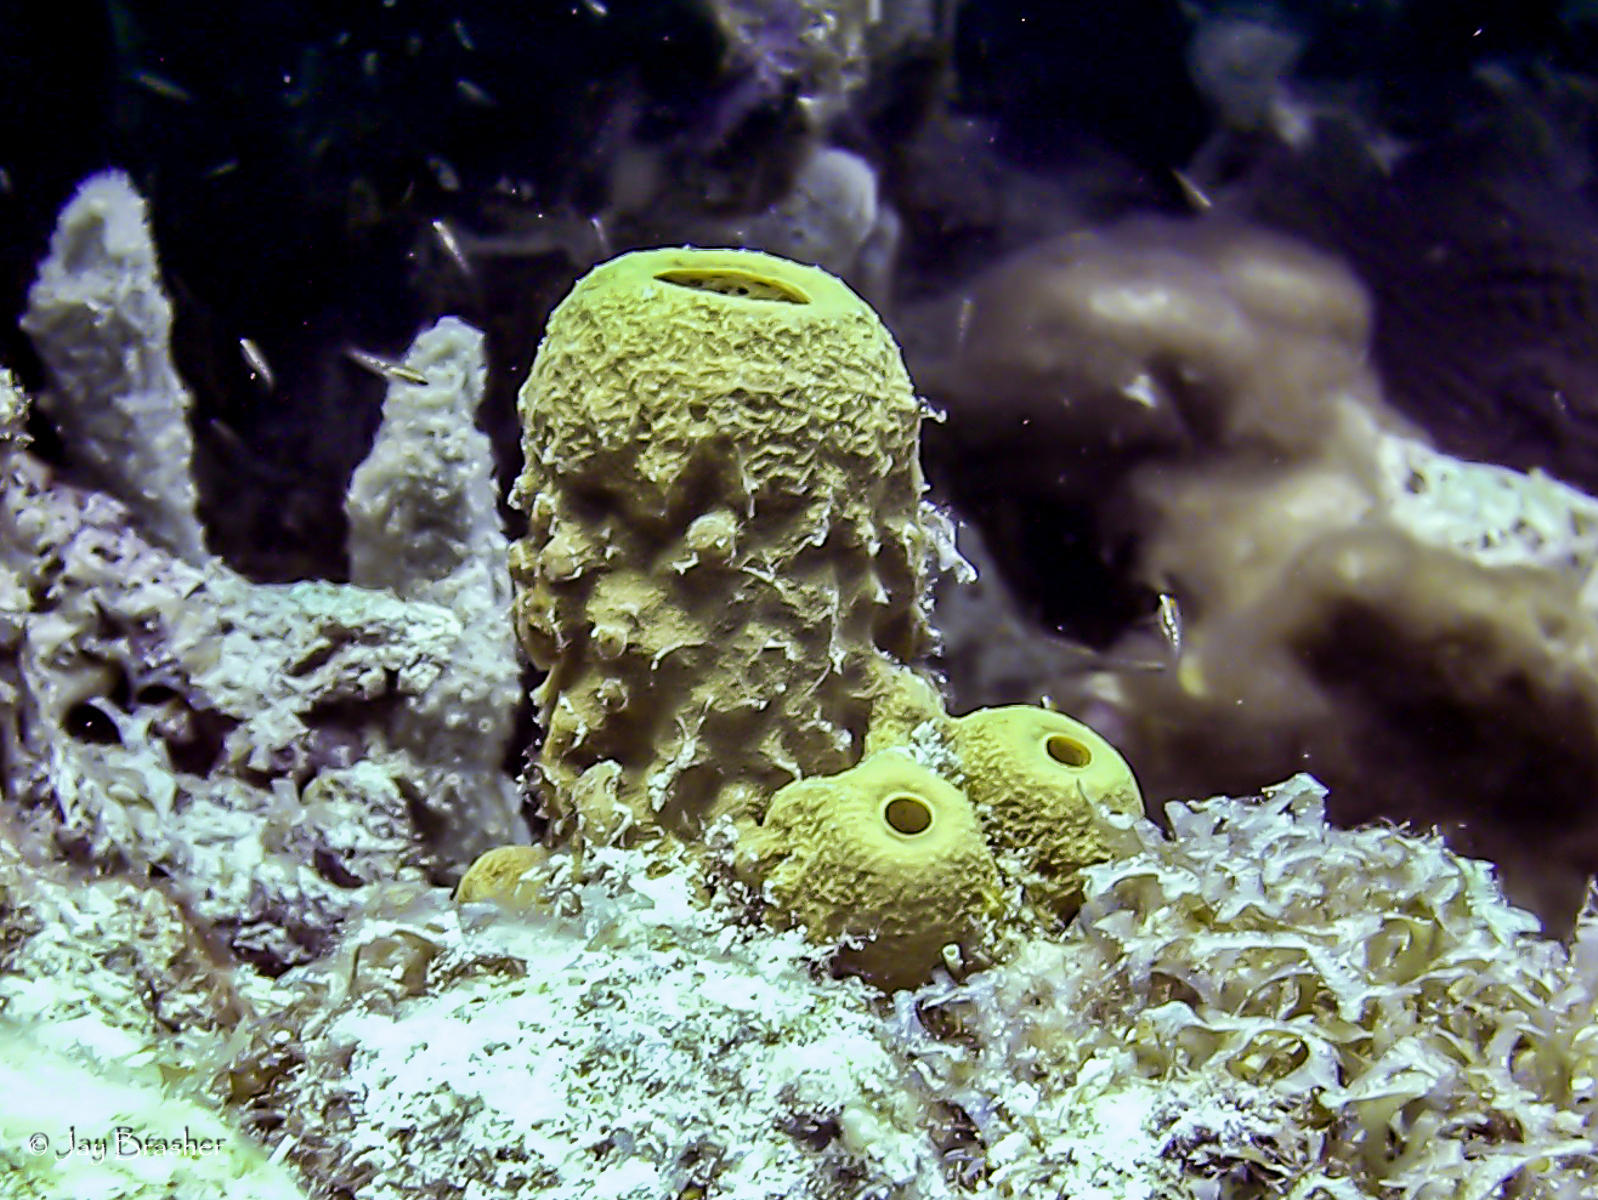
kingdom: Animalia
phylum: Porifera
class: Demospongiae
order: Verongiida
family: Aplysinidae
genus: Aplysina
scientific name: Aplysina fistularis
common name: Candle sponge
